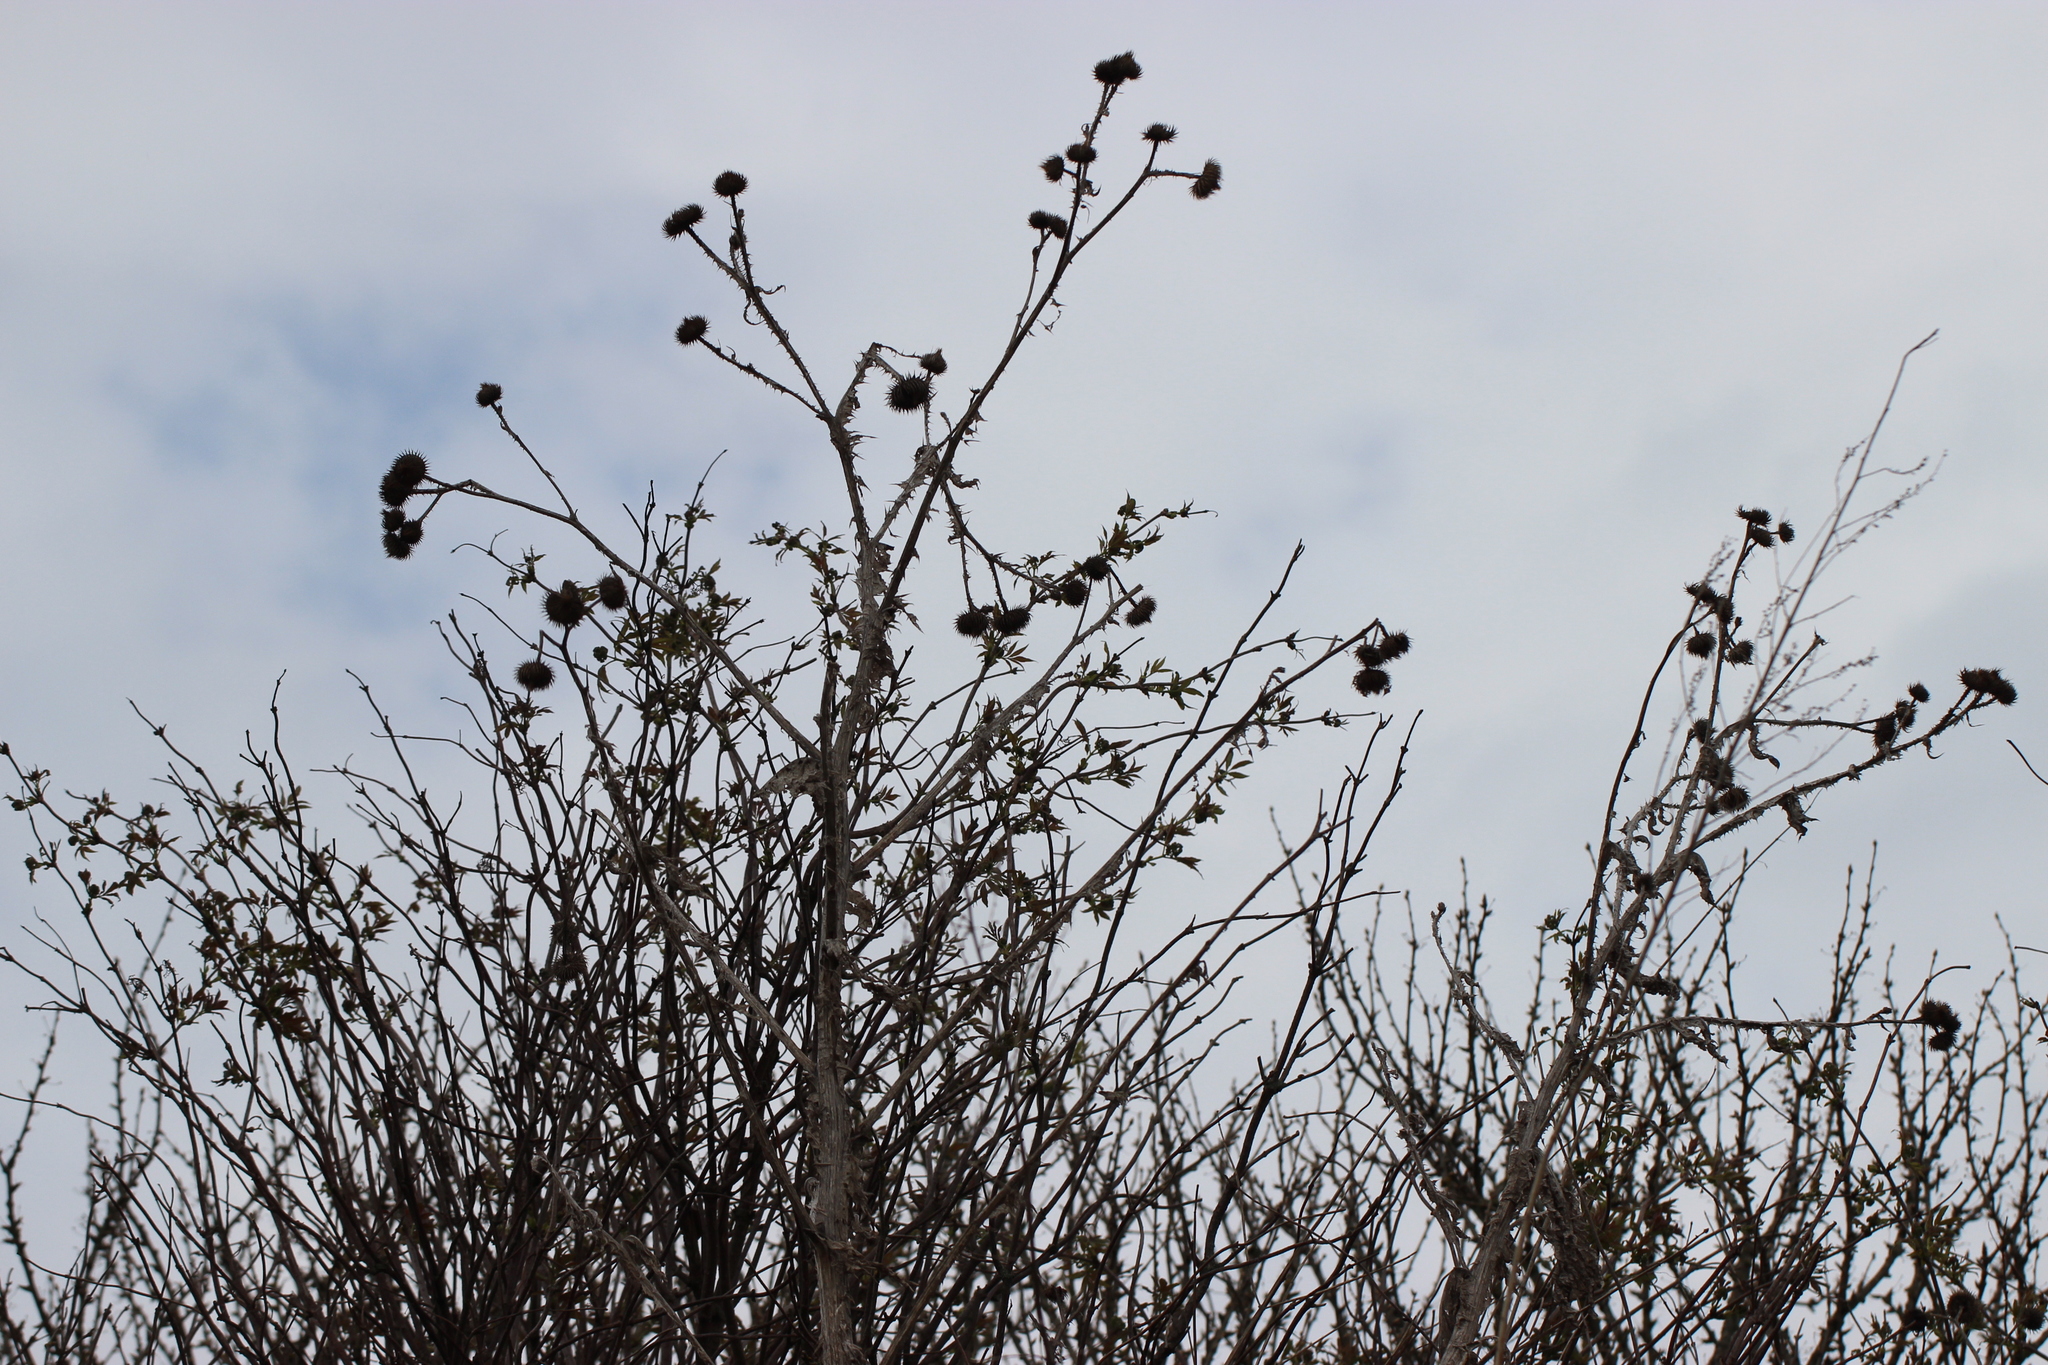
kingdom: Plantae
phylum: Tracheophyta
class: Magnoliopsida
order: Asterales
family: Asteraceae
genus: Onopordum
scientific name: Onopordum acanthium
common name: Scotch thistle
